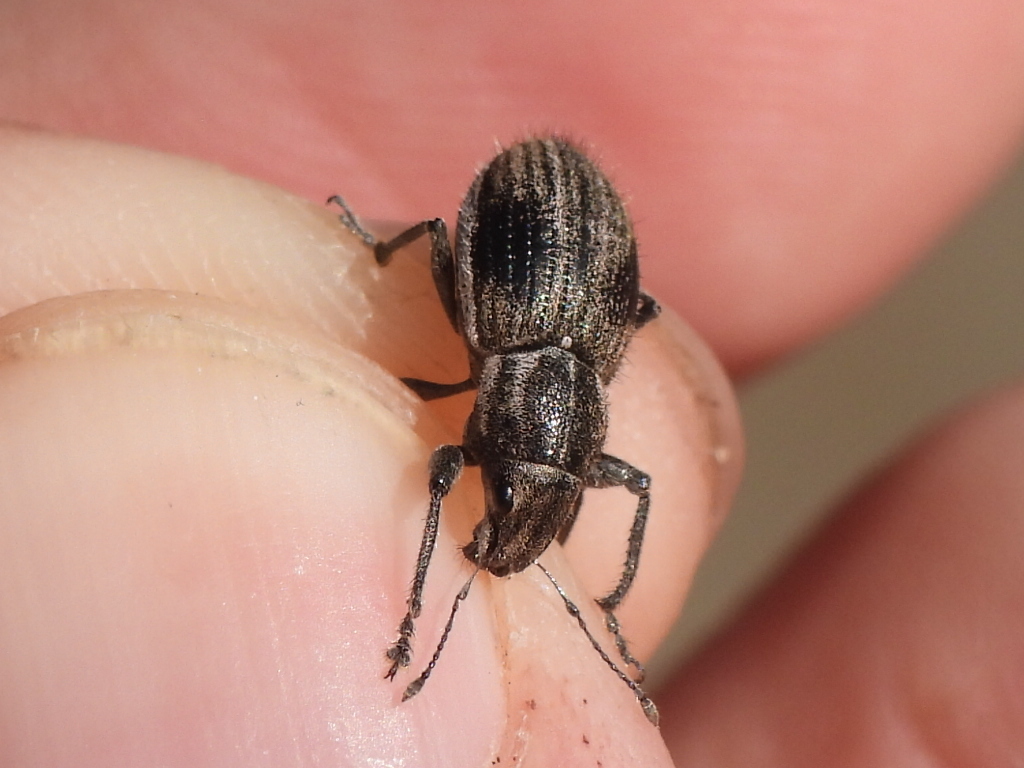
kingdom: Animalia
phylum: Arthropoda
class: Insecta
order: Coleoptera
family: Curculionidae
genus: Naupactus
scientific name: Naupactus leucoloma
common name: Whitefringed beetle
